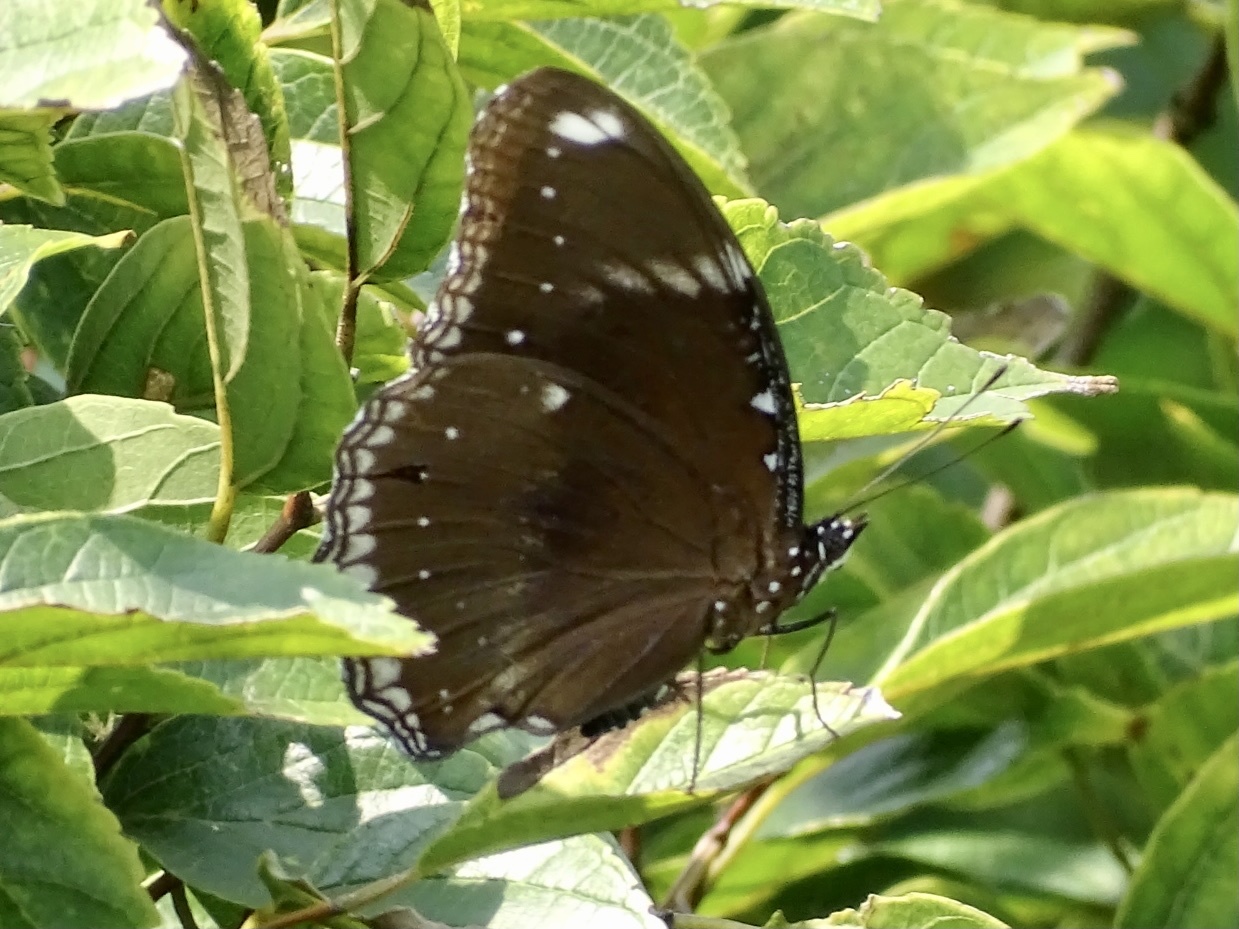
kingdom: Animalia
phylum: Arthropoda
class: Insecta
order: Lepidoptera
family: Nymphalidae
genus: Hypolimnas
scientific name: Hypolimnas bolina
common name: Great eggfly
